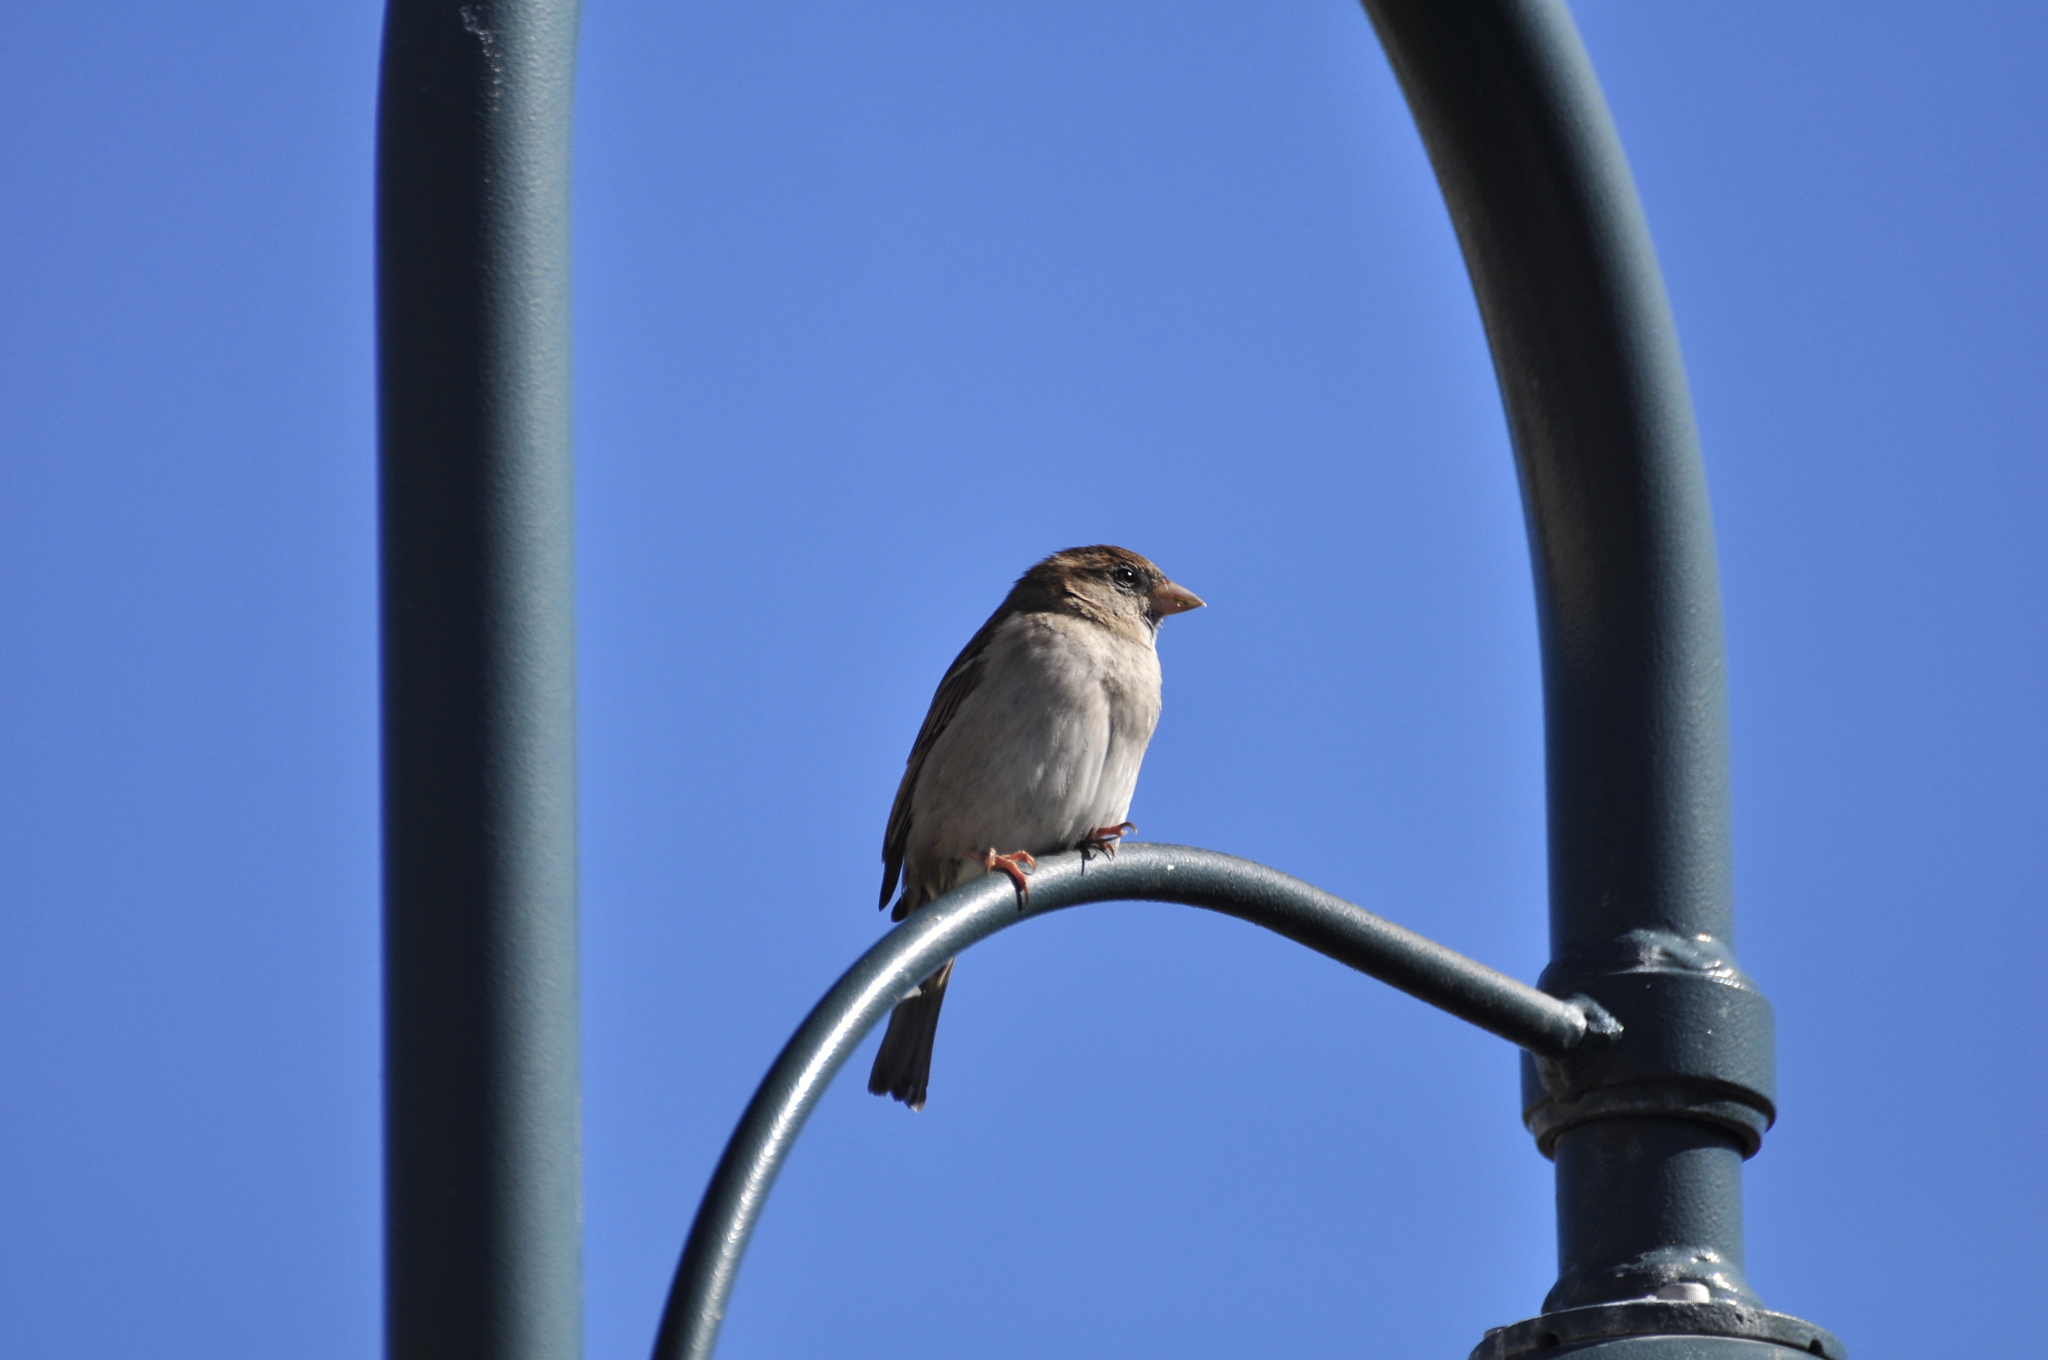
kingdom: Animalia
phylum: Chordata
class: Aves
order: Passeriformes
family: Passeridae
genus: Passer
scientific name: Passer domesticus
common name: House sparrow
